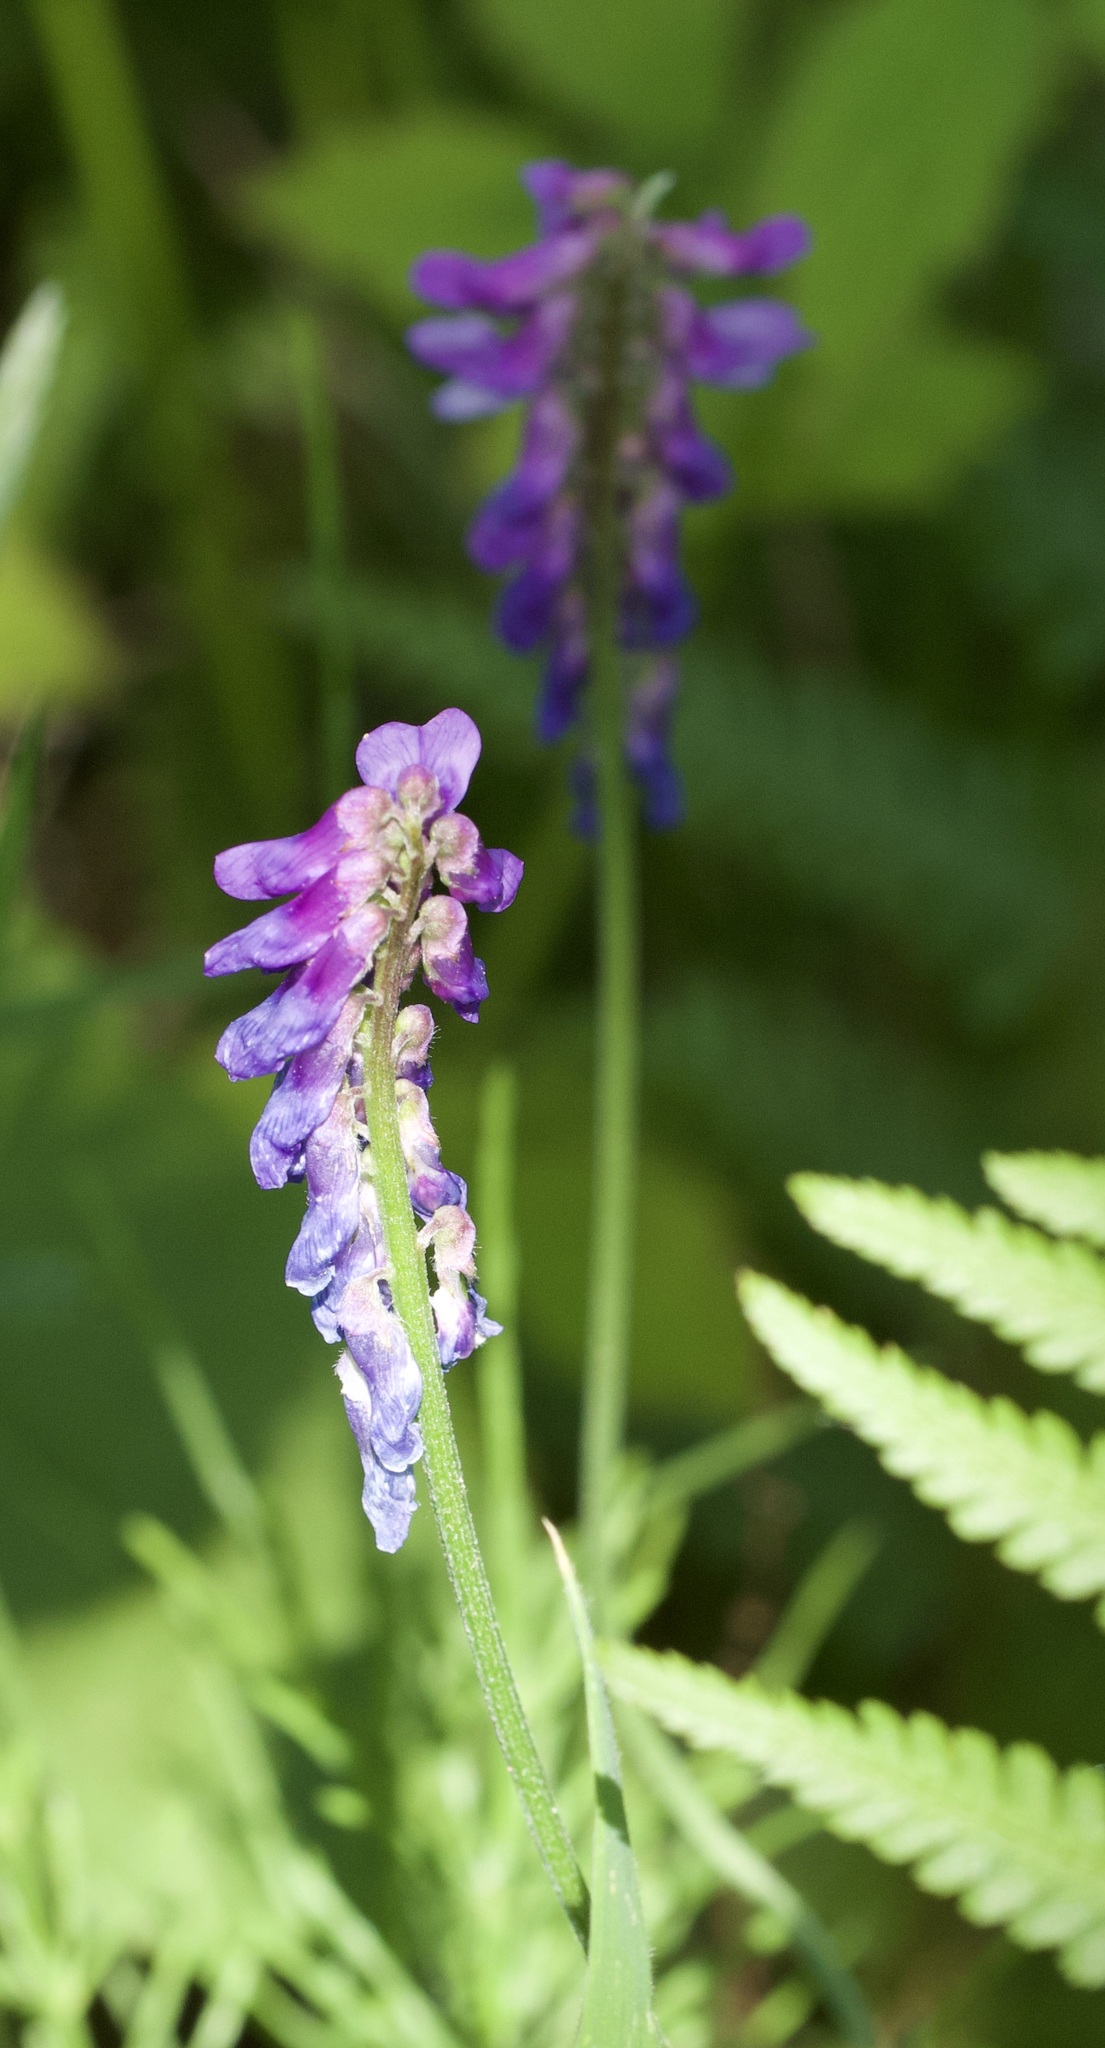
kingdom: Plantae
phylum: Tracheophyta
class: Magnoliopsida
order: Fabales
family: Fabaceae
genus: Vicia
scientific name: Vicia cracca
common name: Bird vetch
